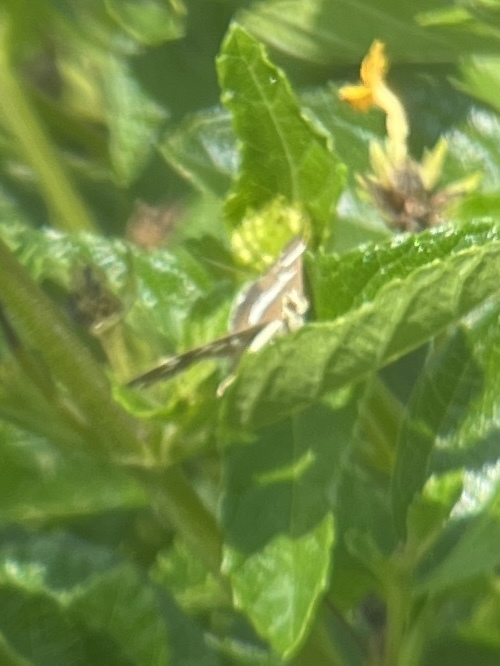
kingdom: Animalia
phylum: Arthropoda
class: Insecta
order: Lepidoptera
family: Crambidae
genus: Spoladea
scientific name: Spoladea recurvalis
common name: Beet webworm moth
